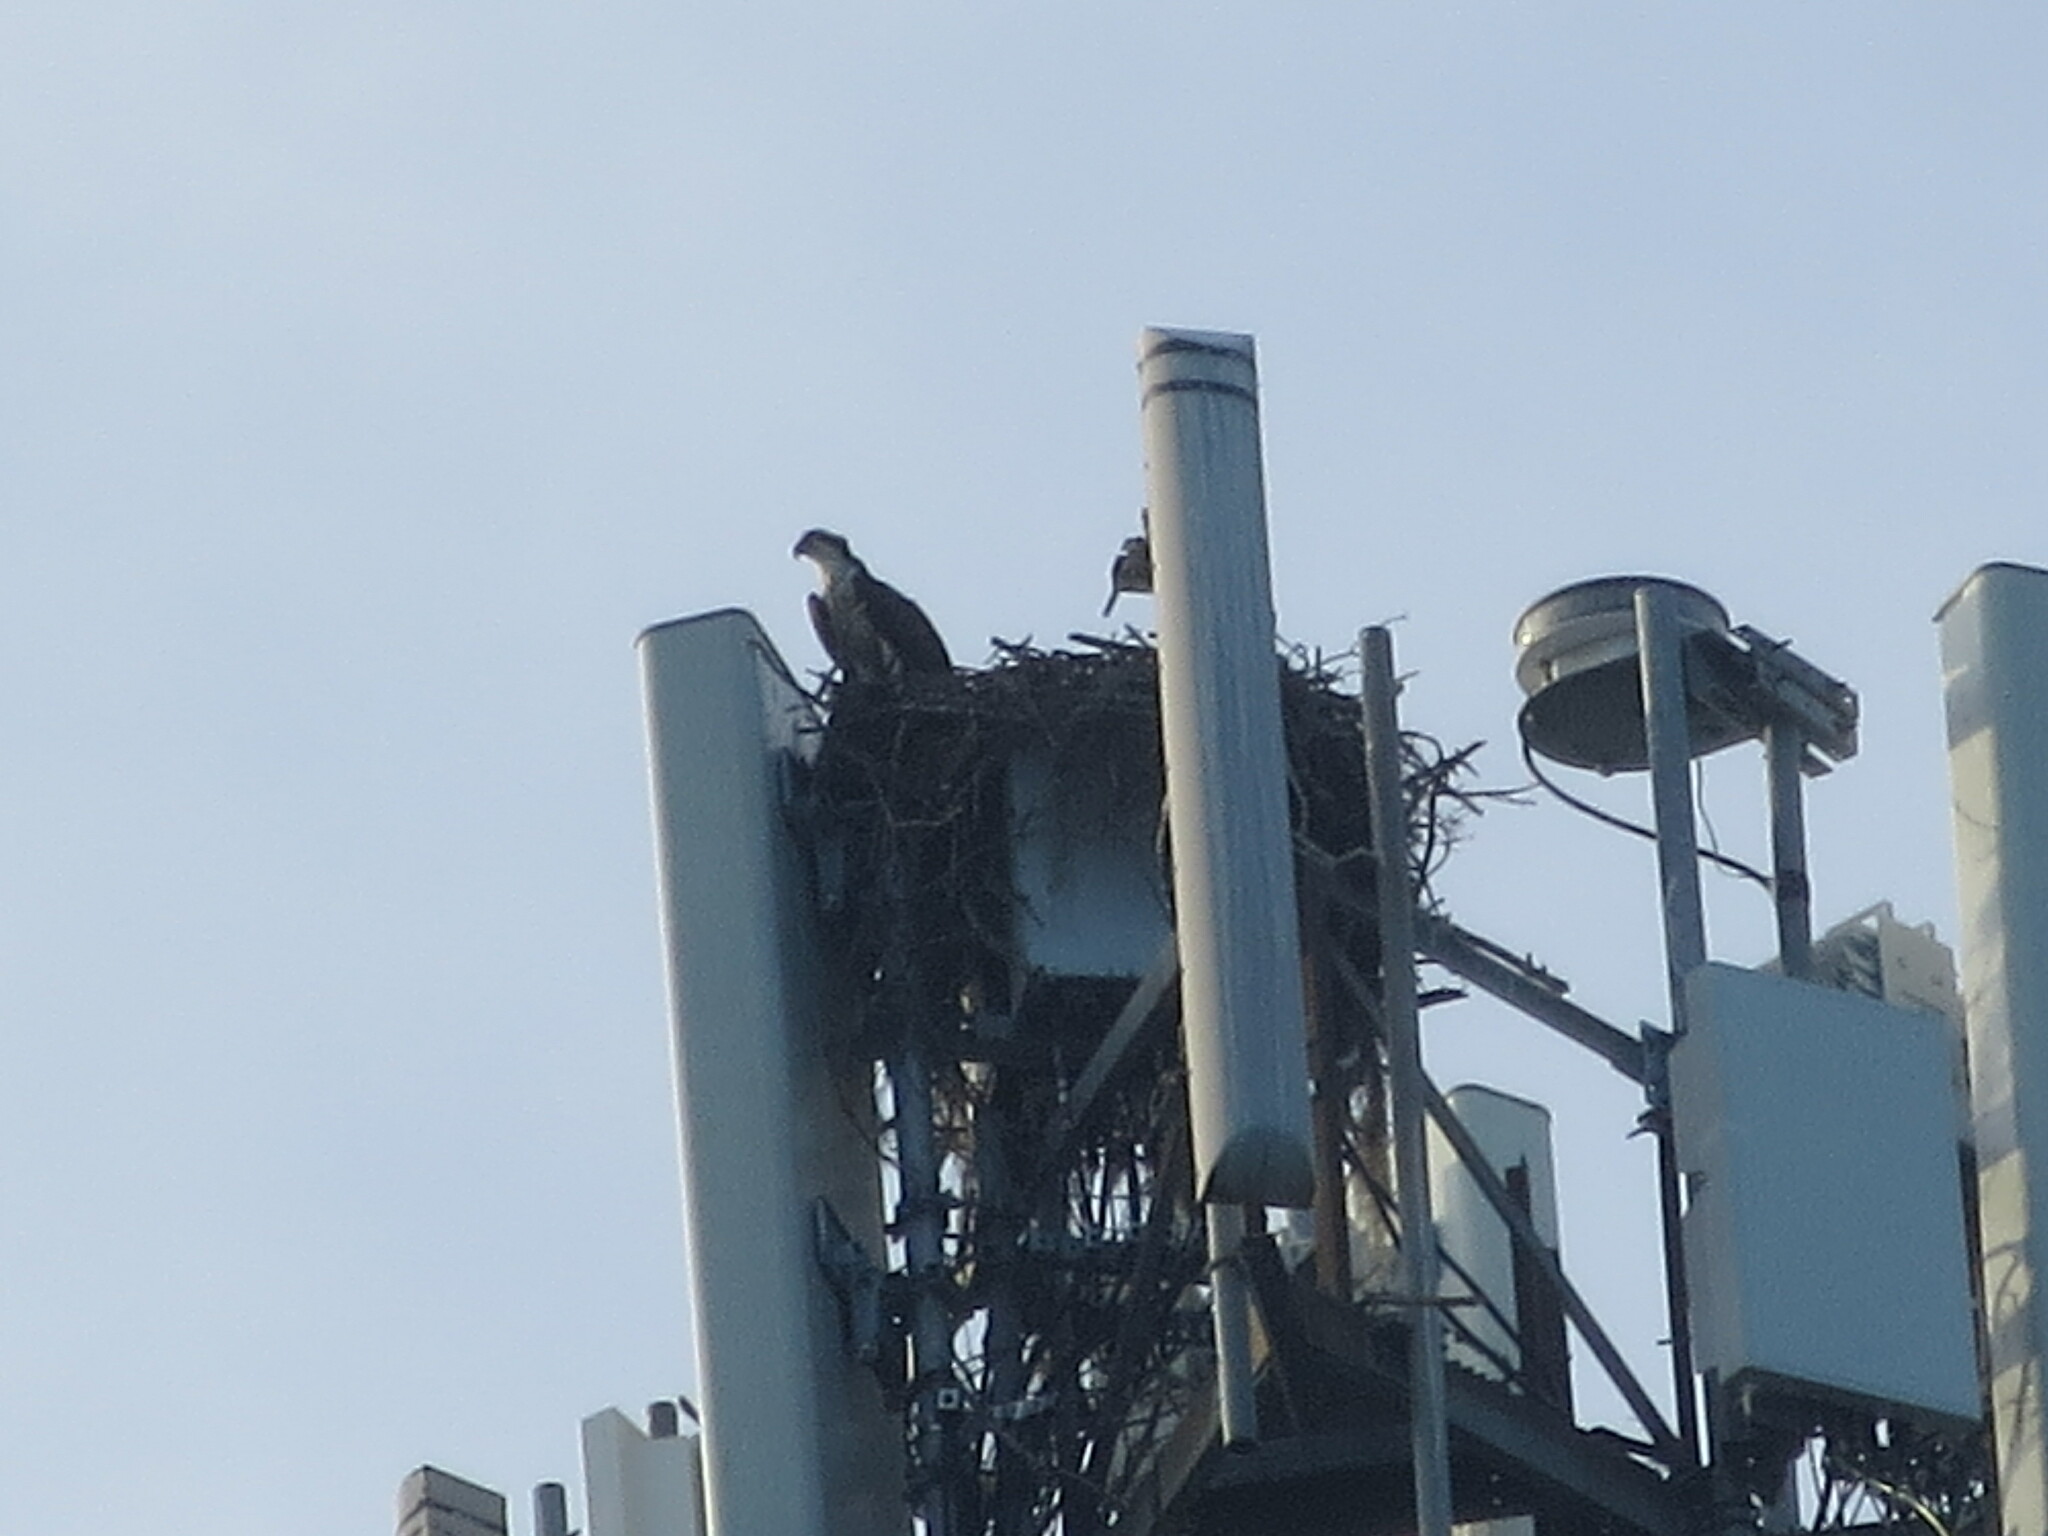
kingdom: Animalia
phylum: Chordata
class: Aves
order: Accipitriformes
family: Pandionidae
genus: Pandion
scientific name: Pandion haliaetus
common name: Osprey
